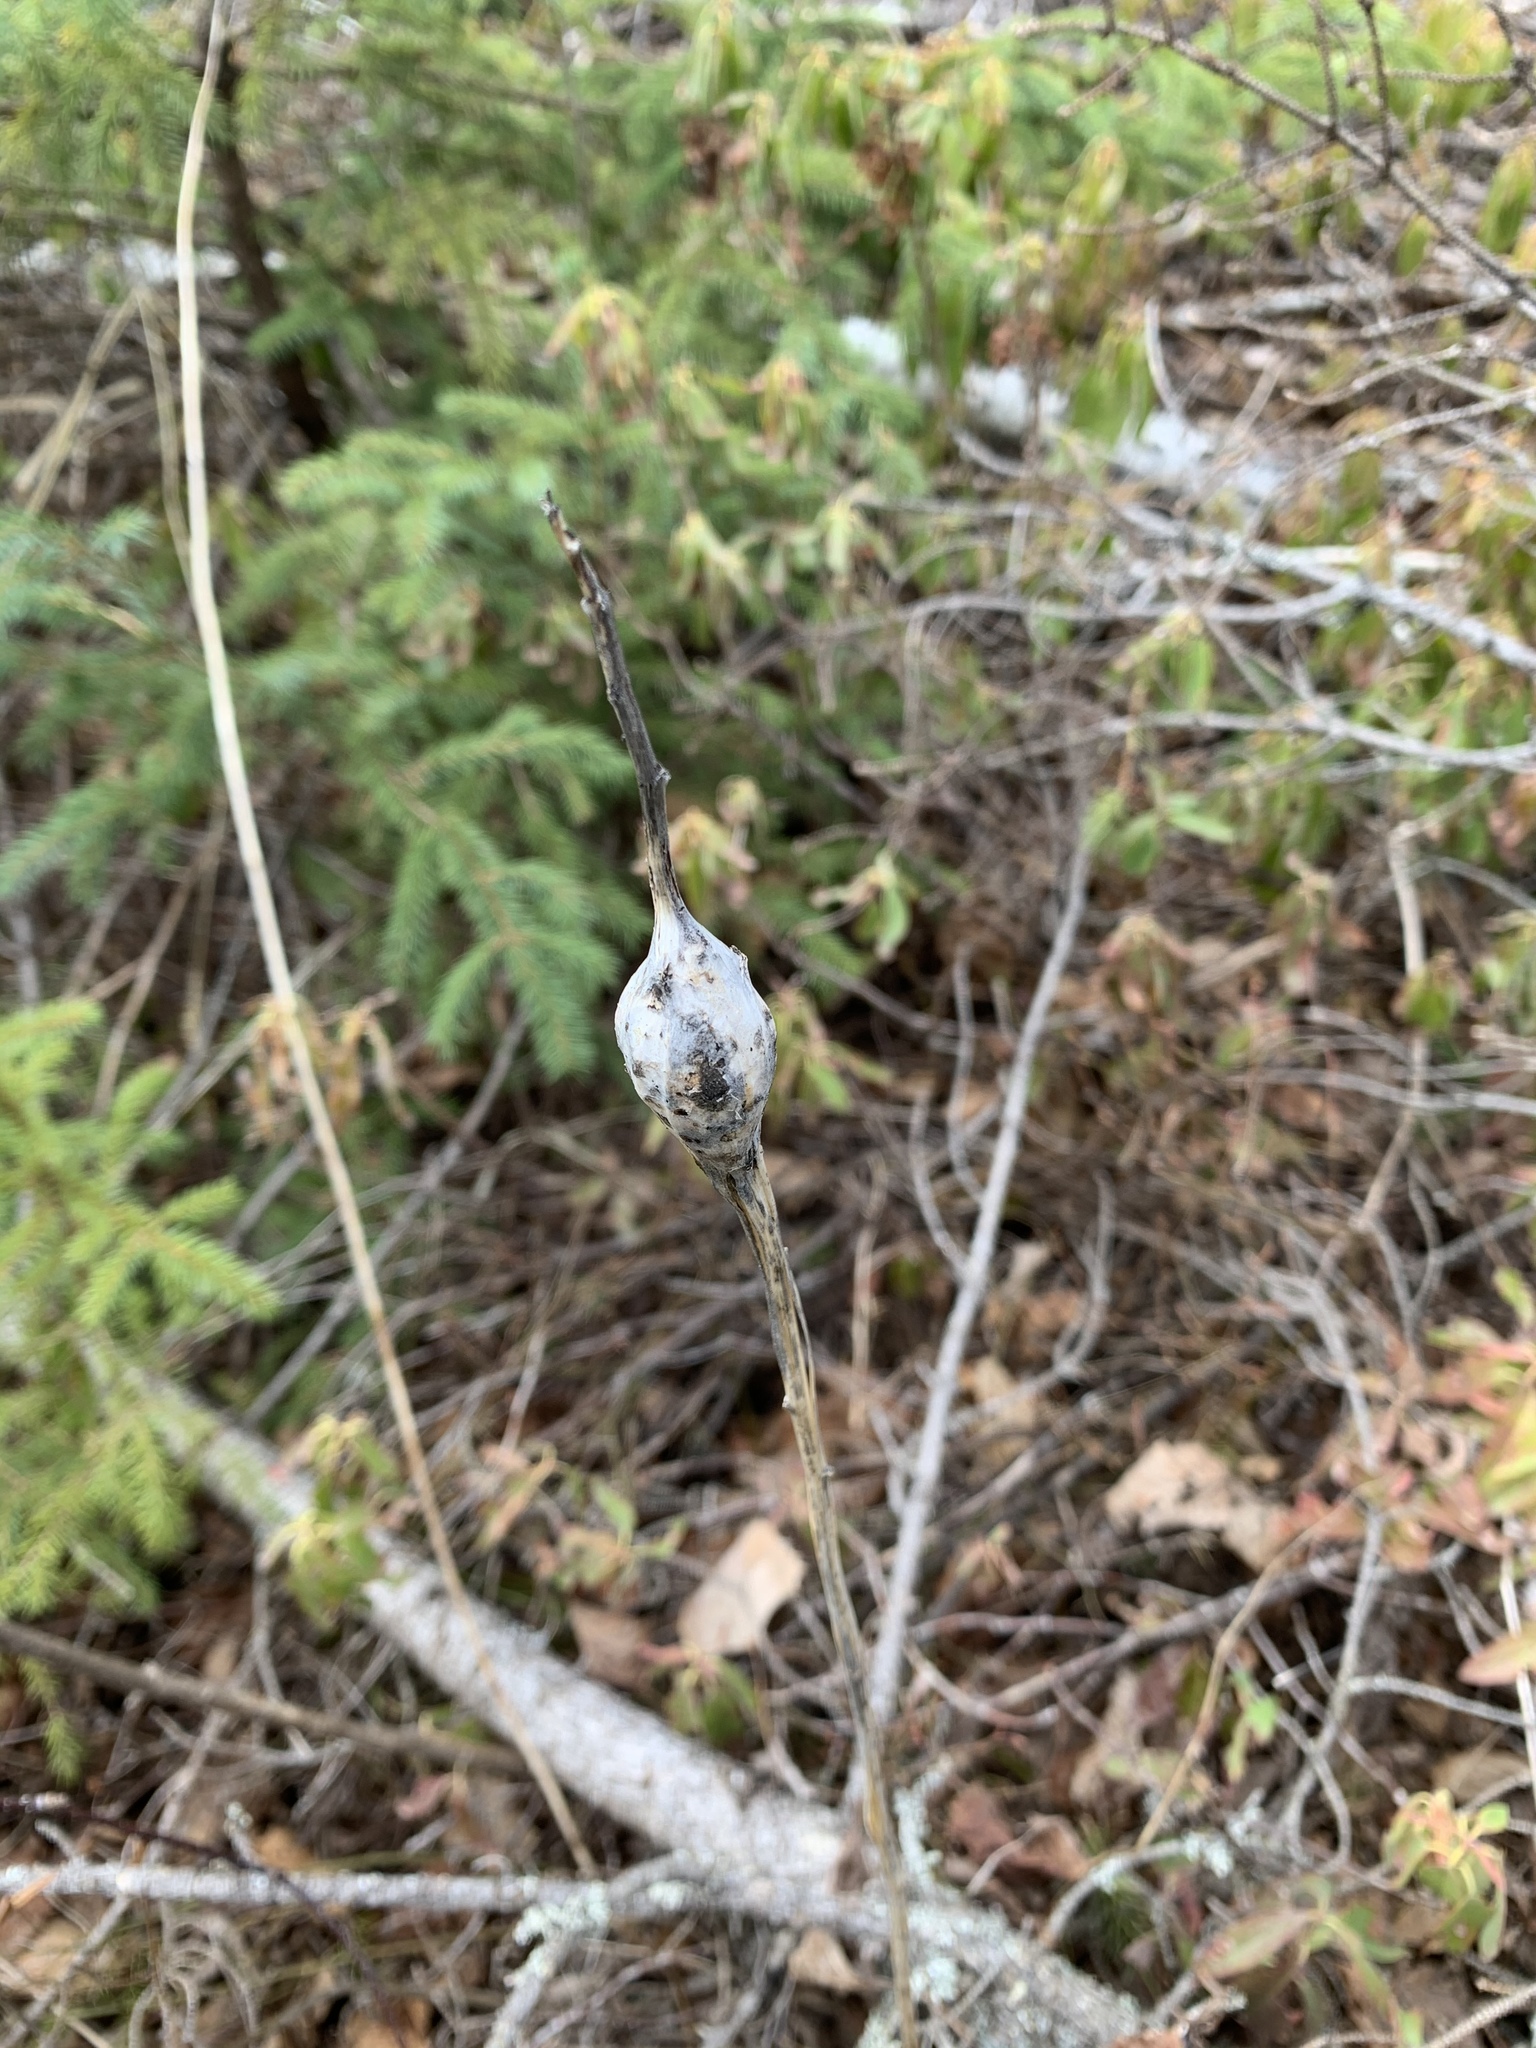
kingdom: Animalia
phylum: Arthropoda
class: Insecta
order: Diptera
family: Tephritidae
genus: Eurosta
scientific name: Eurosta solidaginis
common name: Goldenrod gall fly
